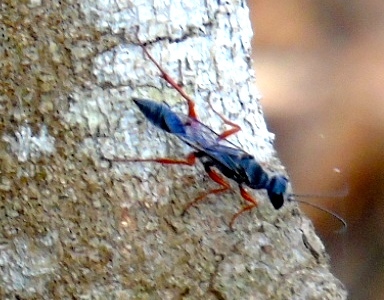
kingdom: Animalia
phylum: Arthropoda
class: Insecta
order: Hymenoptera
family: Sphecidae
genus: Podium
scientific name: Podium
